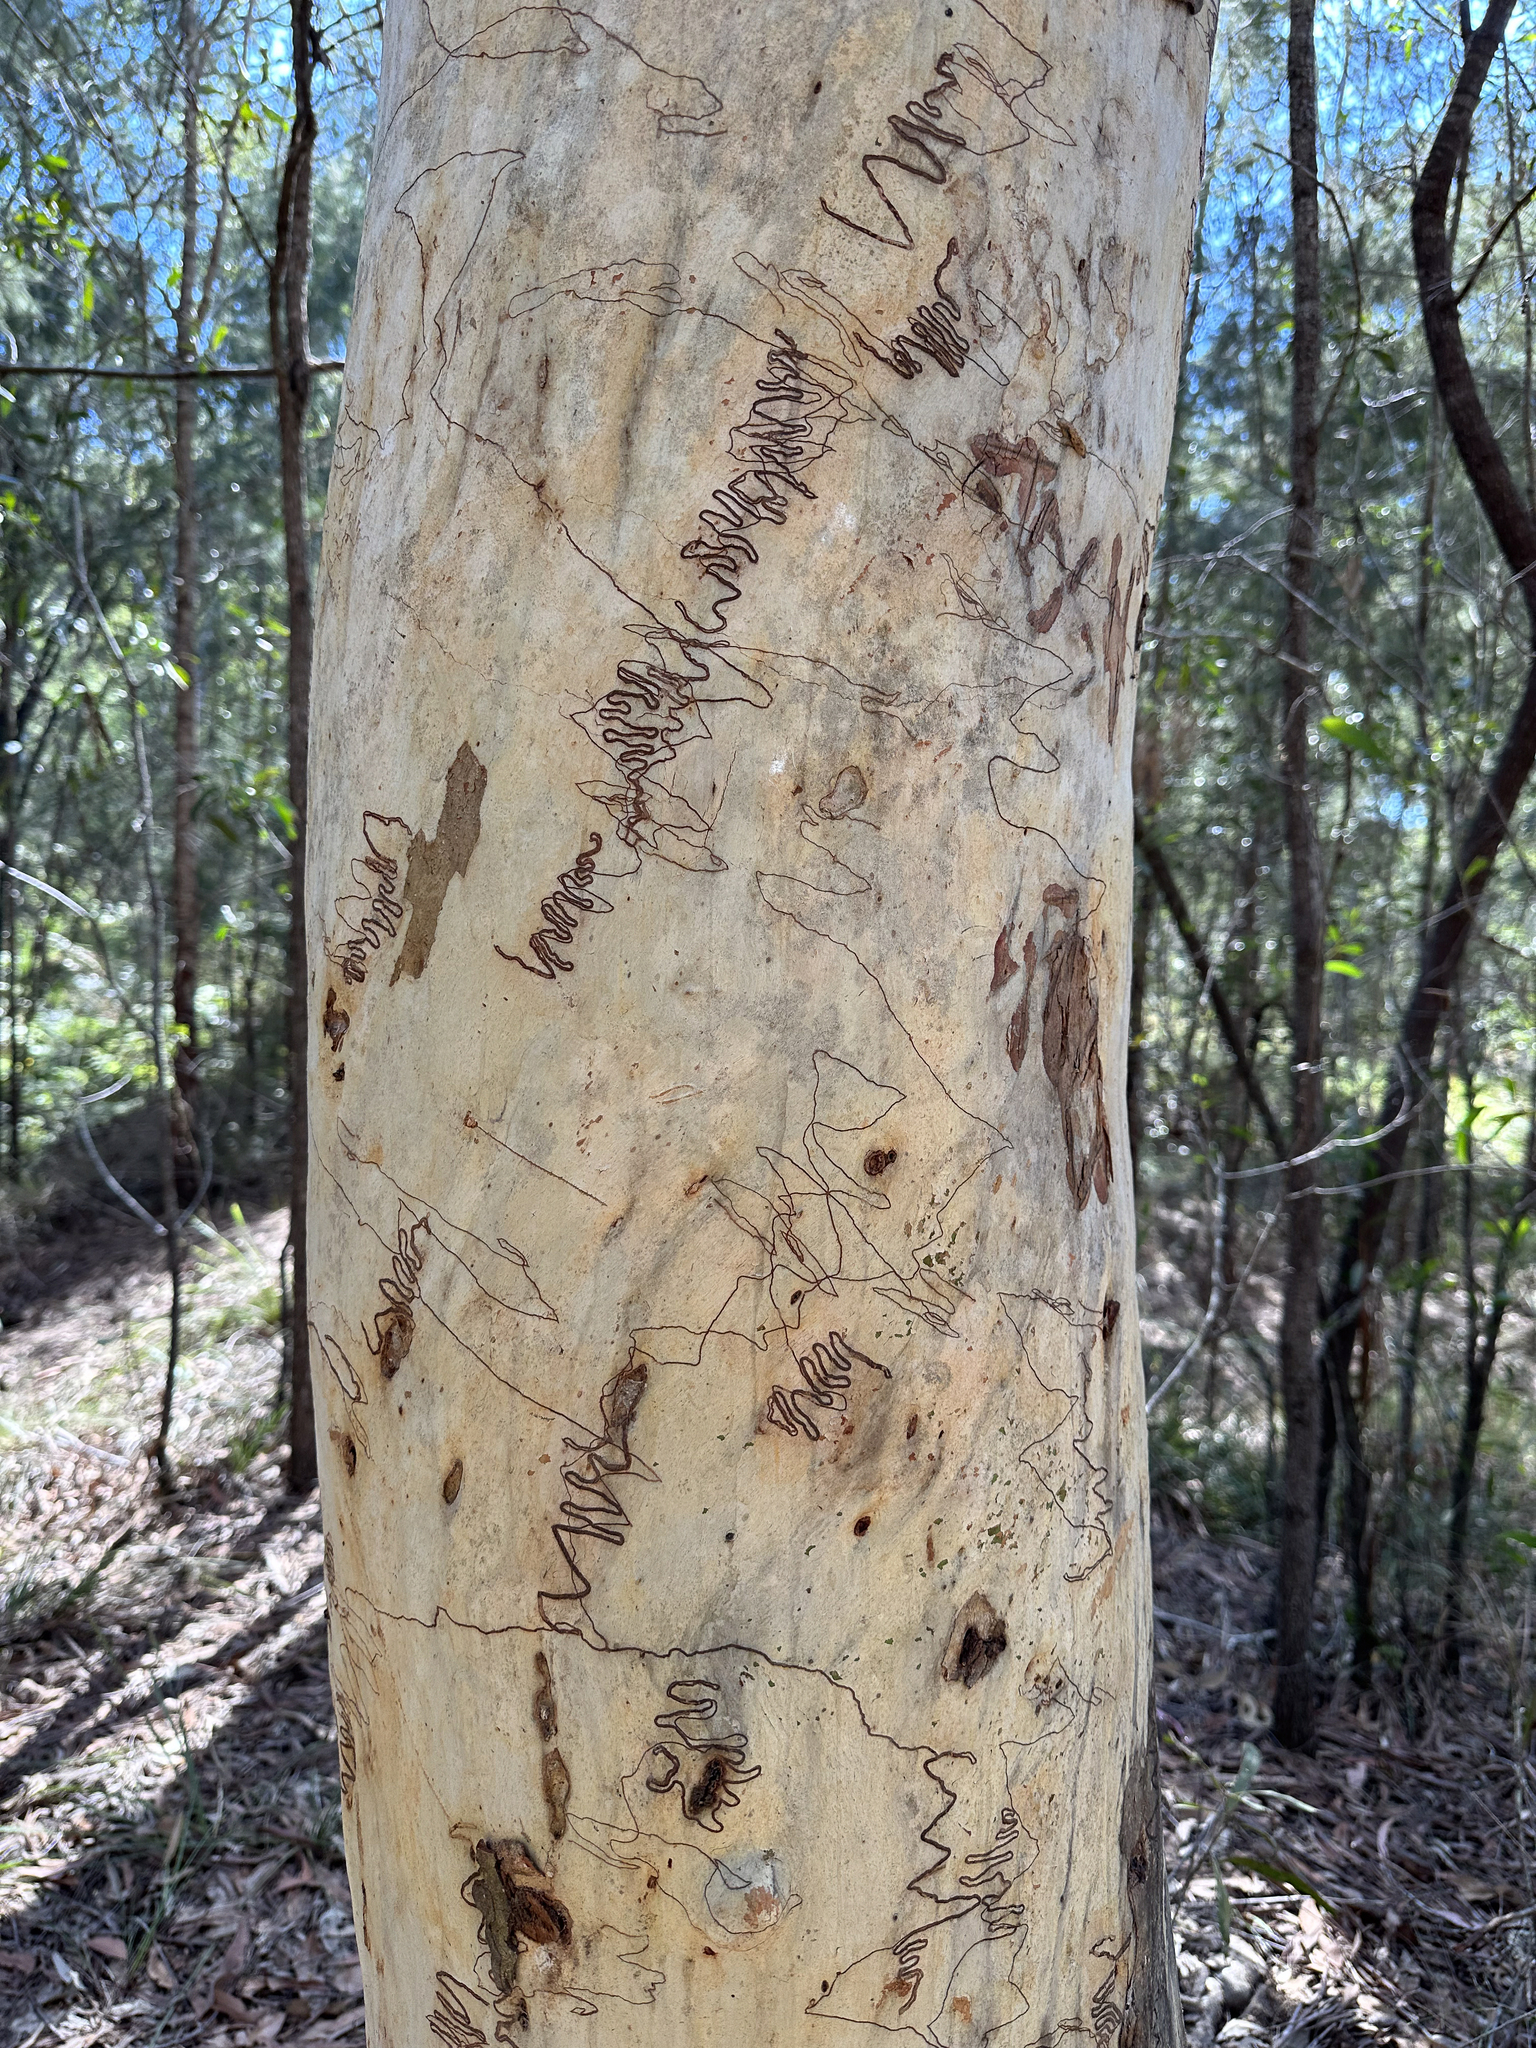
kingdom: Plantae
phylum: Tracheophyta
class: Magnoliopsida
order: Myrtales
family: Myrtaceae
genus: Eucalyptus
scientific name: Eucalyptus racemosa
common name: Scribbly gum
